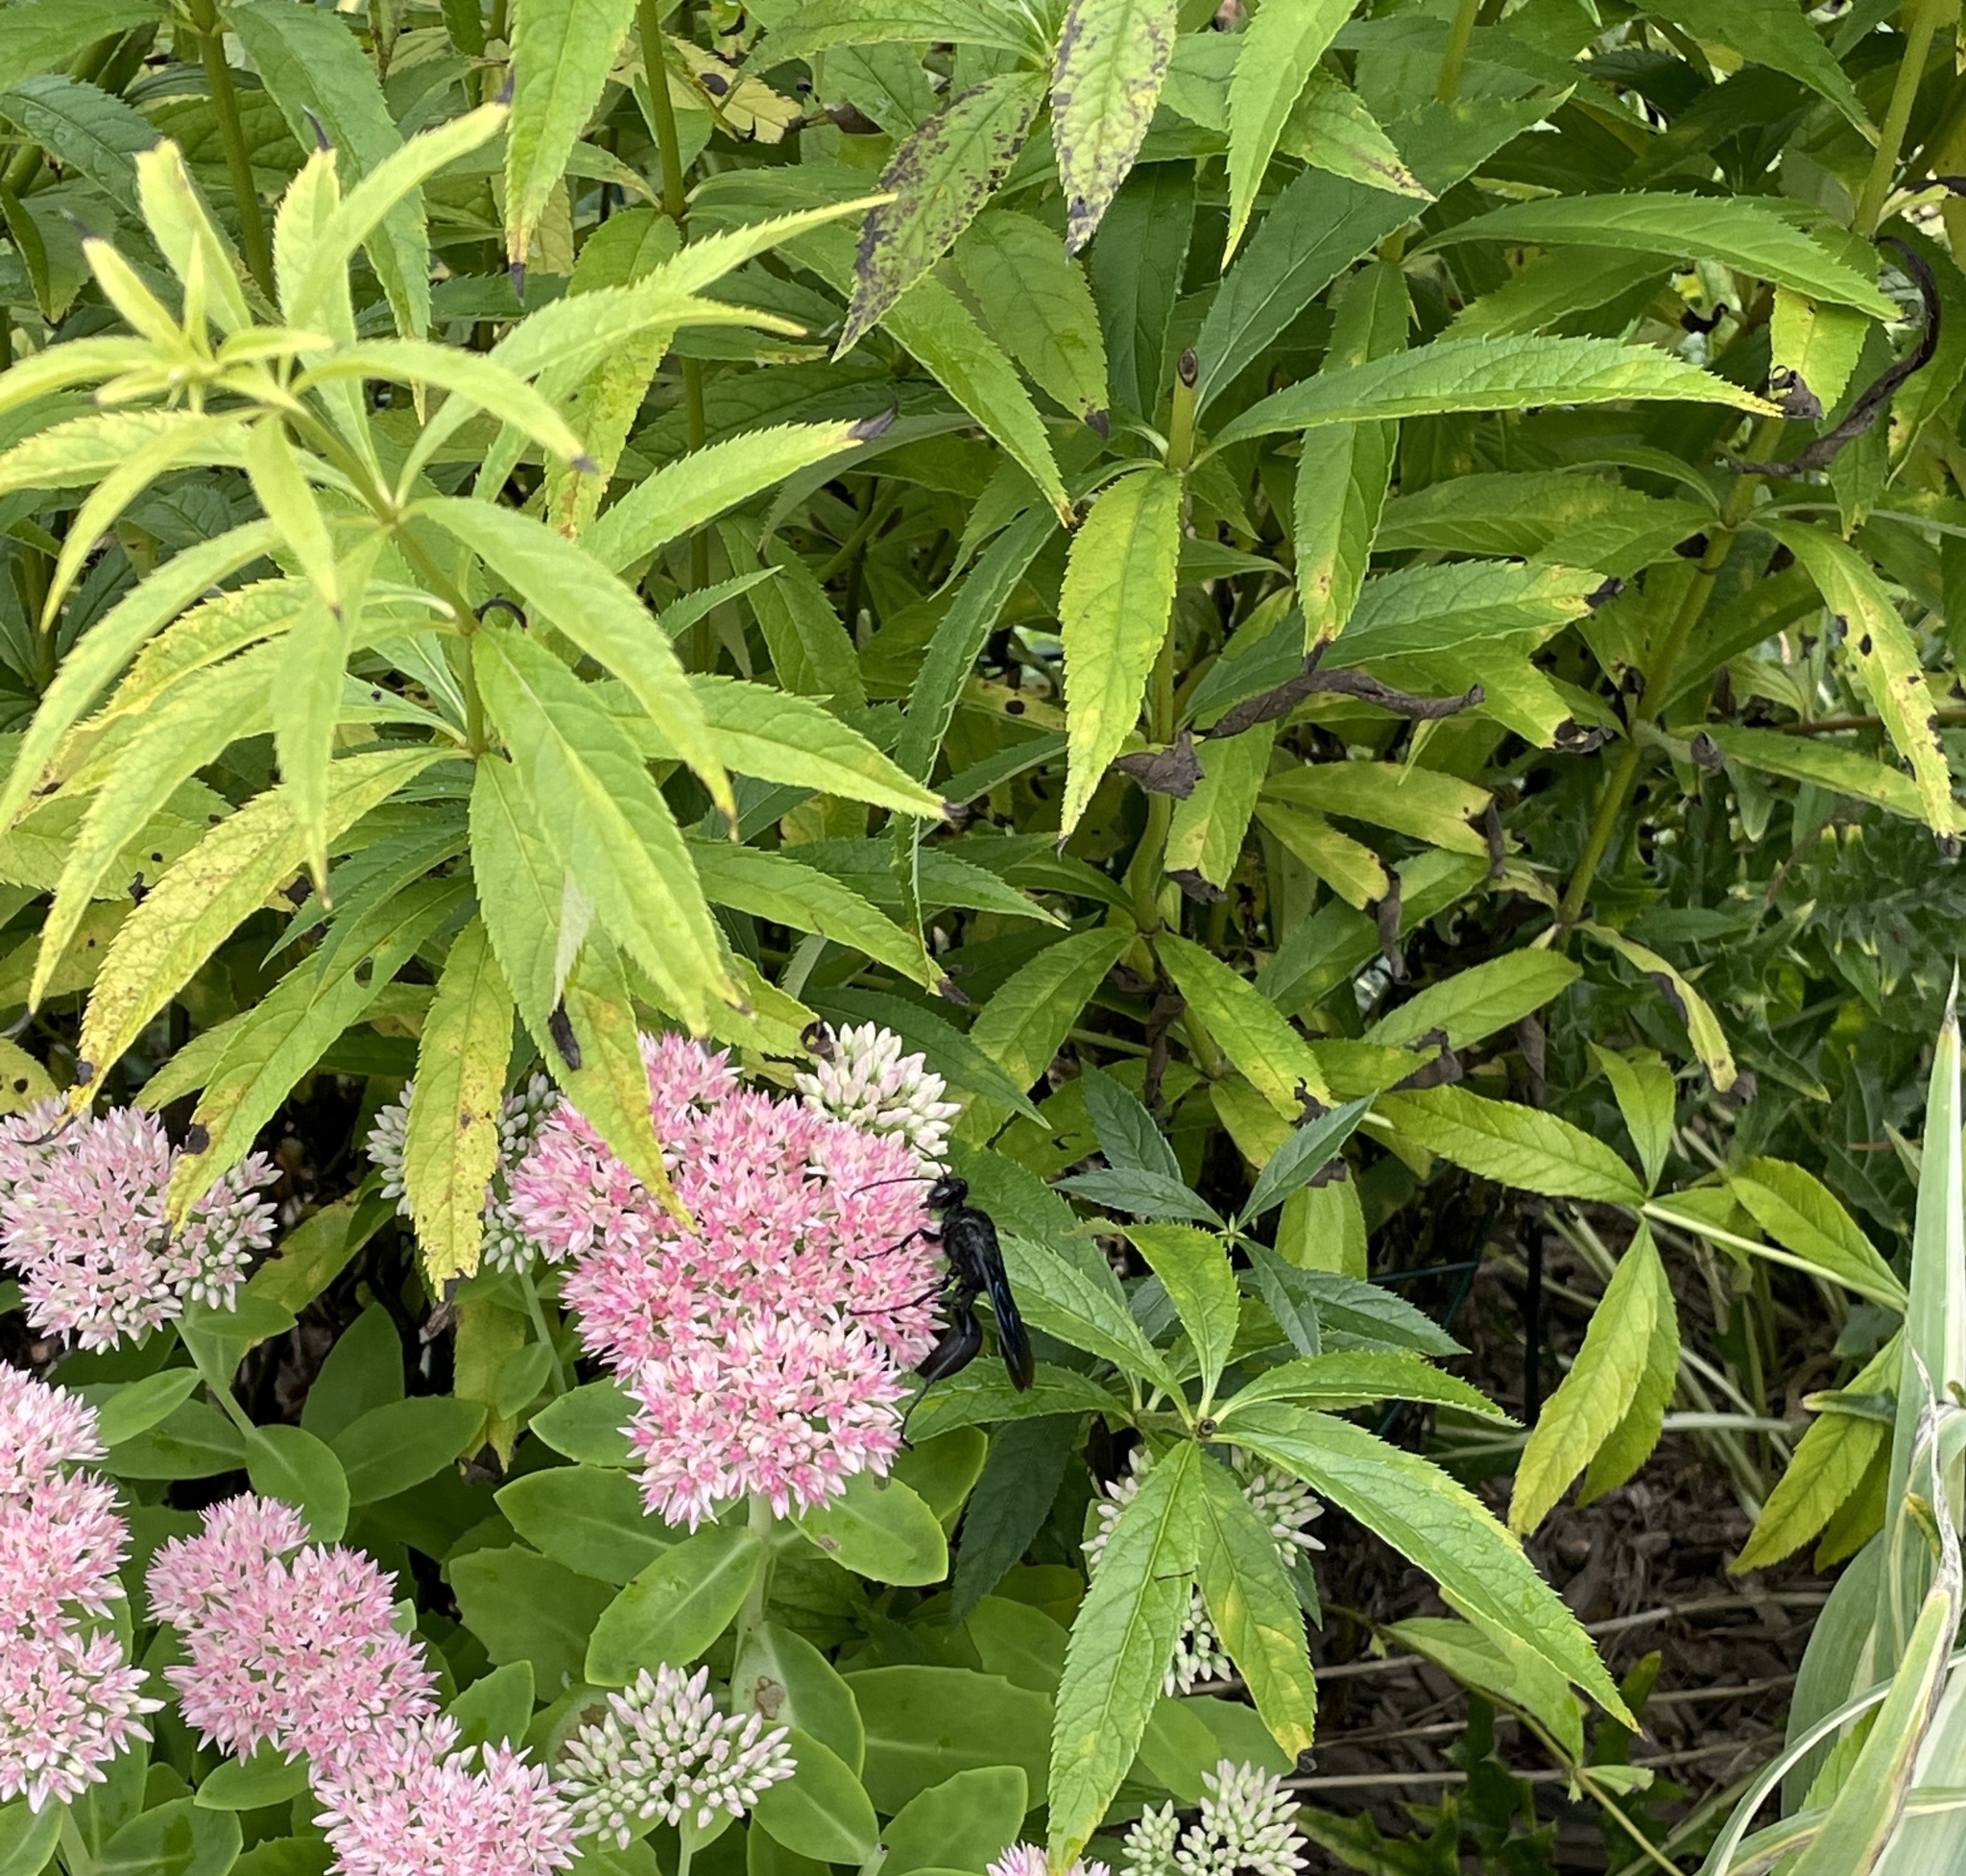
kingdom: Animalia
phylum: Arthropoda
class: Insecta
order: Hymenoptera
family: Sphecidae
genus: Sphex
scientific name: Sphex pensylvanicus
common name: Great black digger wasp
